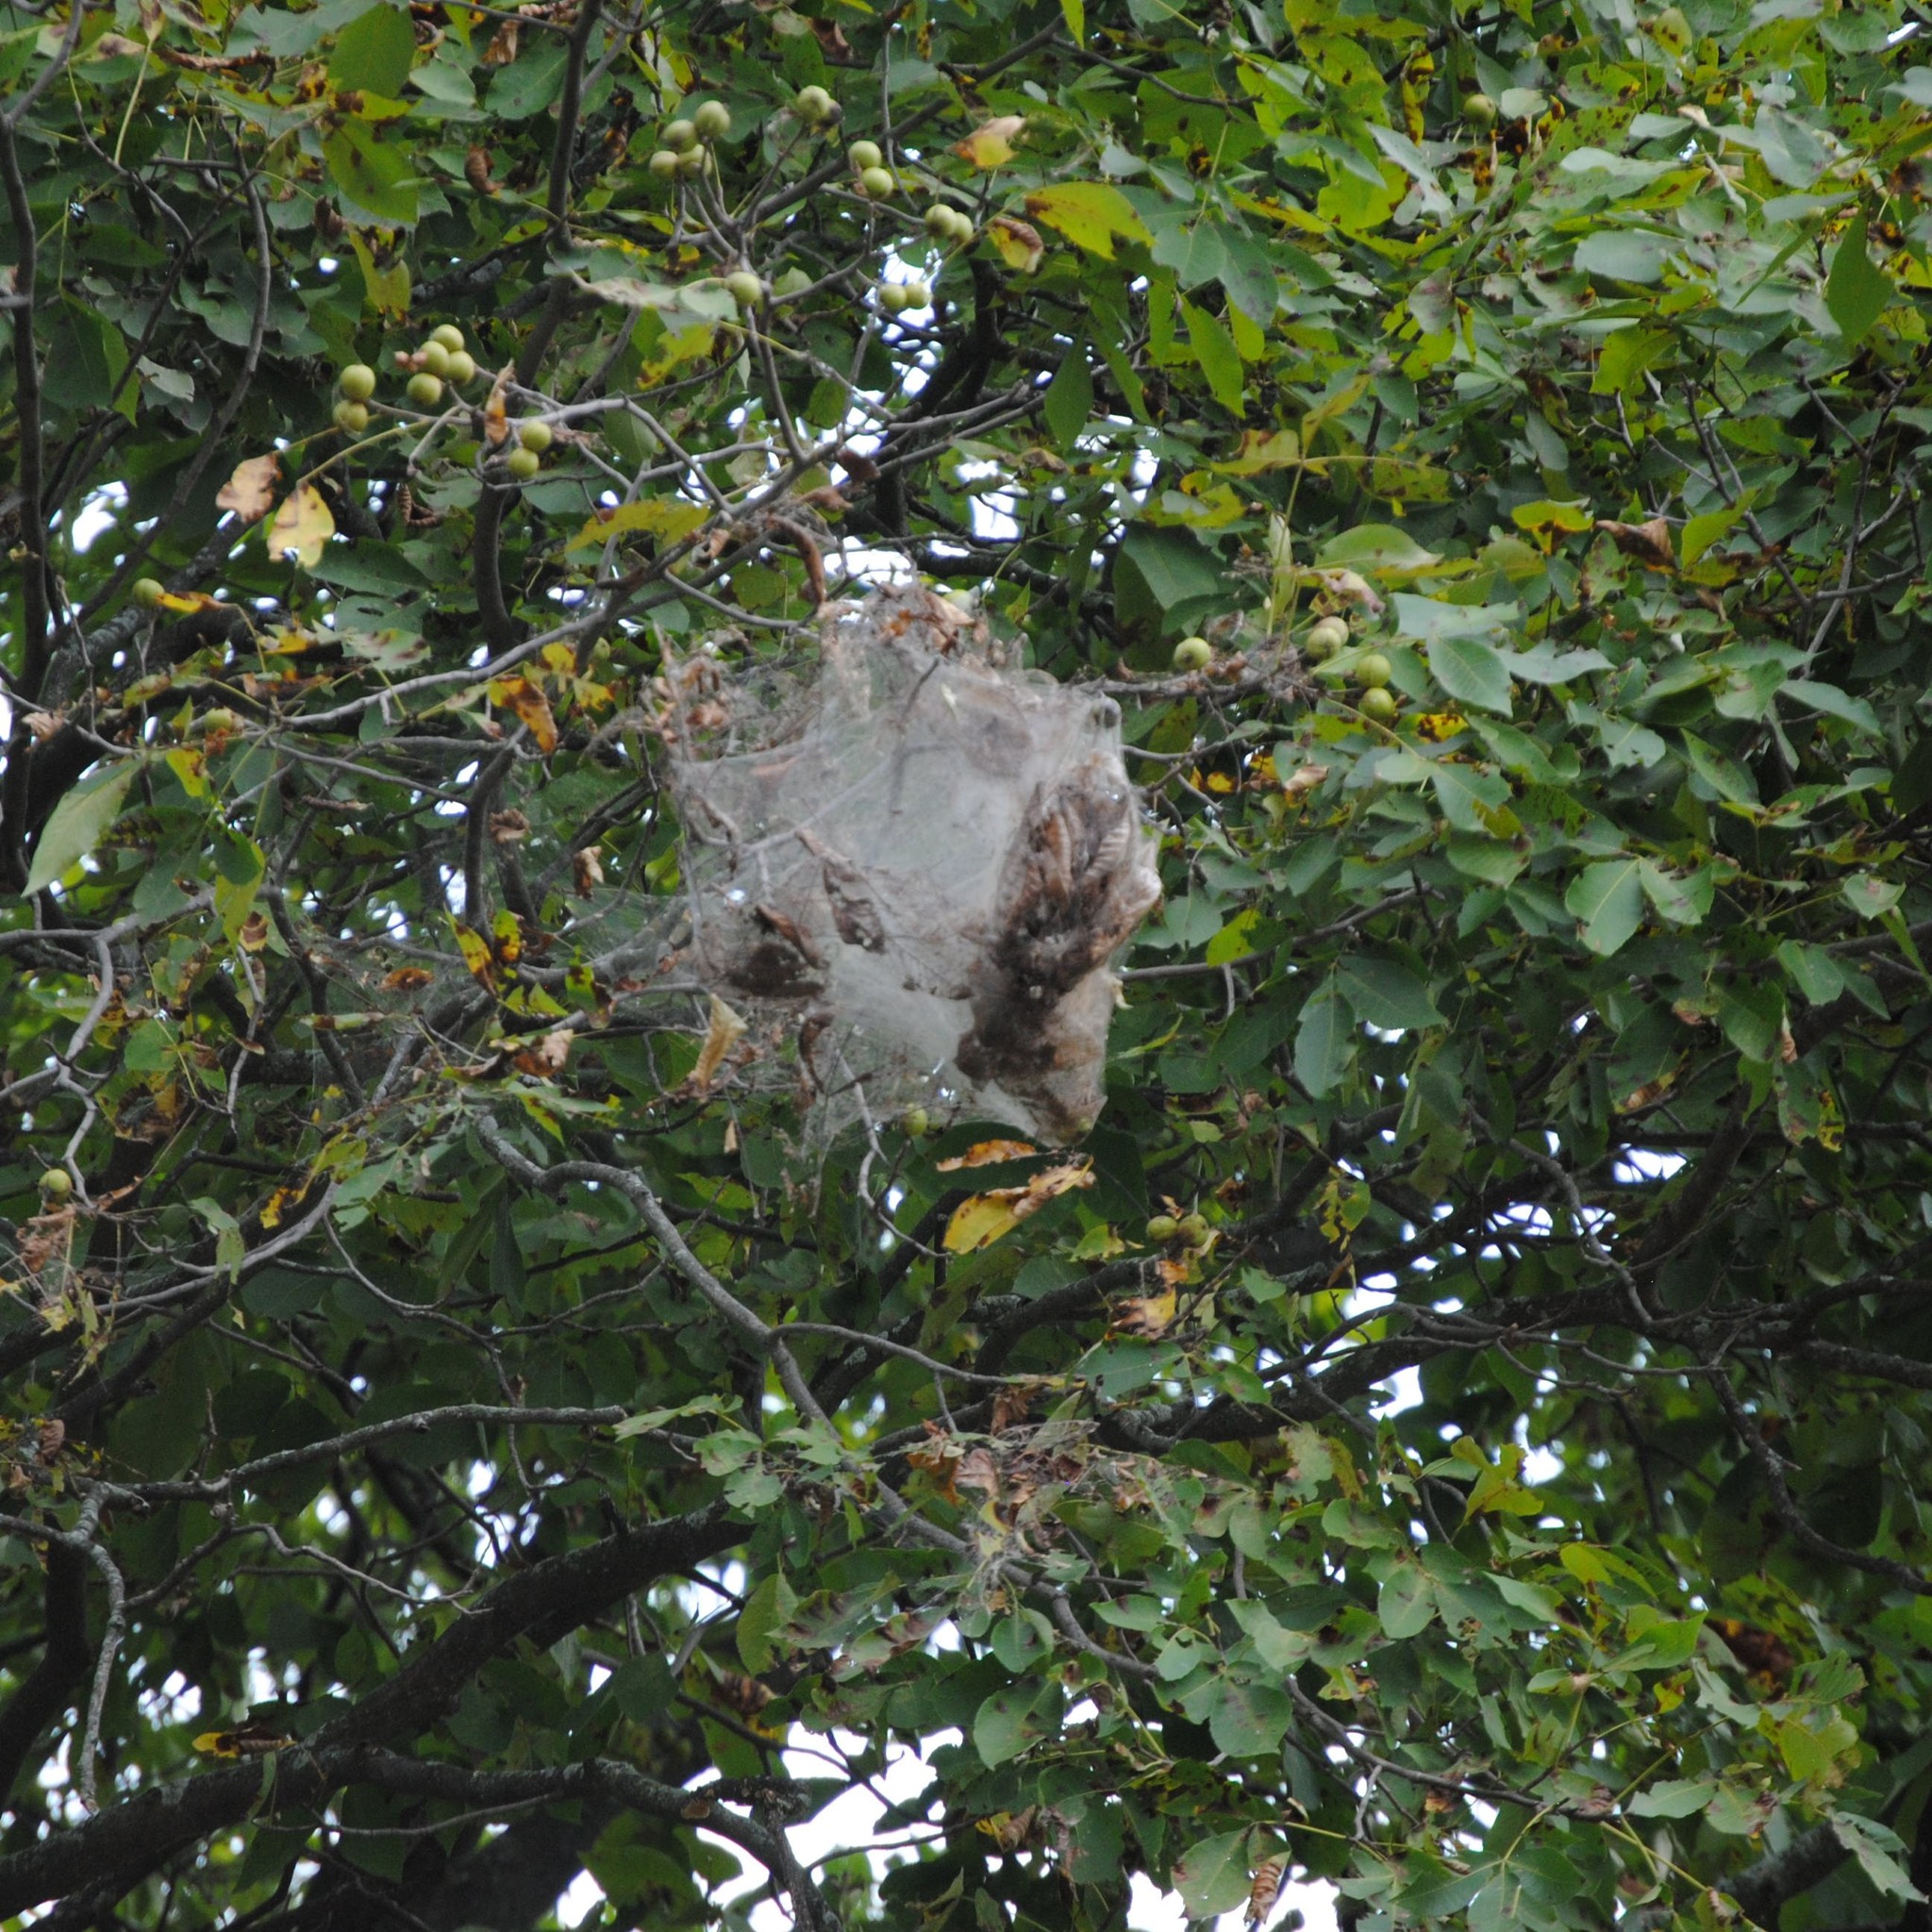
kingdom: Animalia
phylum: Arthropoda
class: Insecta
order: Lepidoptera
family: Erebidae
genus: Hyphantria
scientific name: Hyphantria cunea
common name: American white moth
